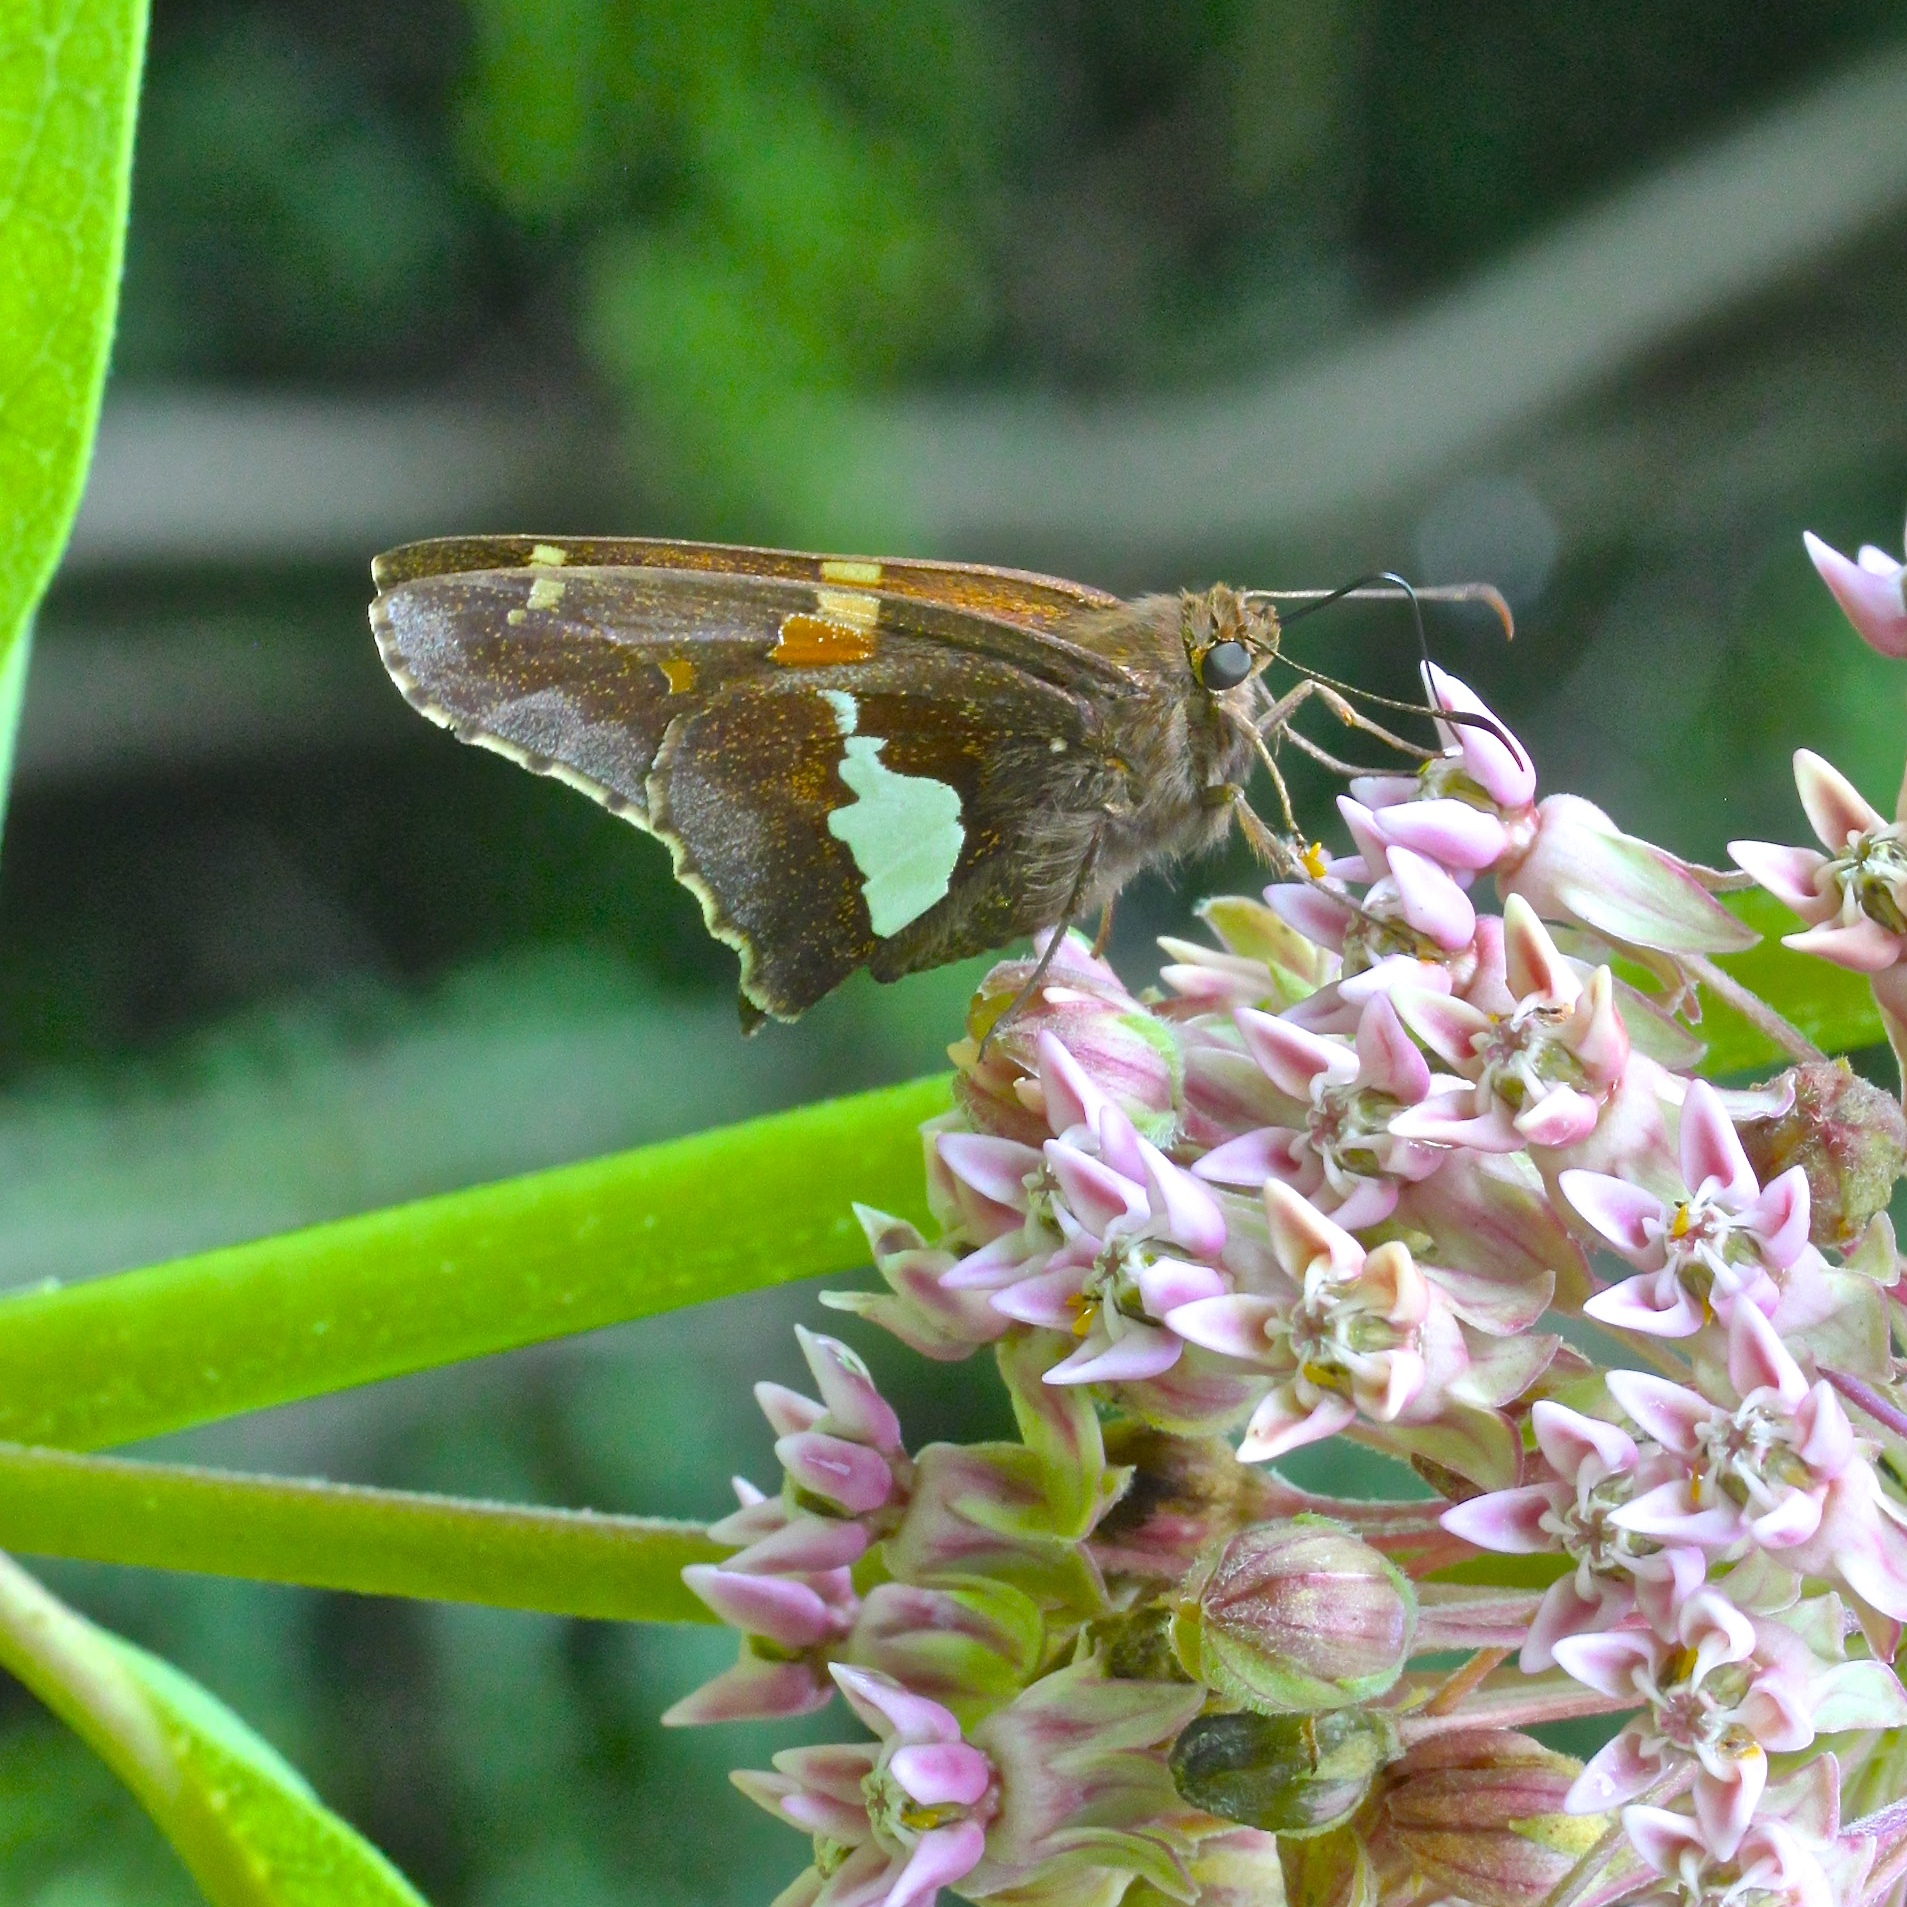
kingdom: Animalia
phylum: Arthropoda
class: Insecta
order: Lepidoptera
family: Hesperiidae
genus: Epargyreus
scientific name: Epargyreus clarus
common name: Silver-spotted skipper
